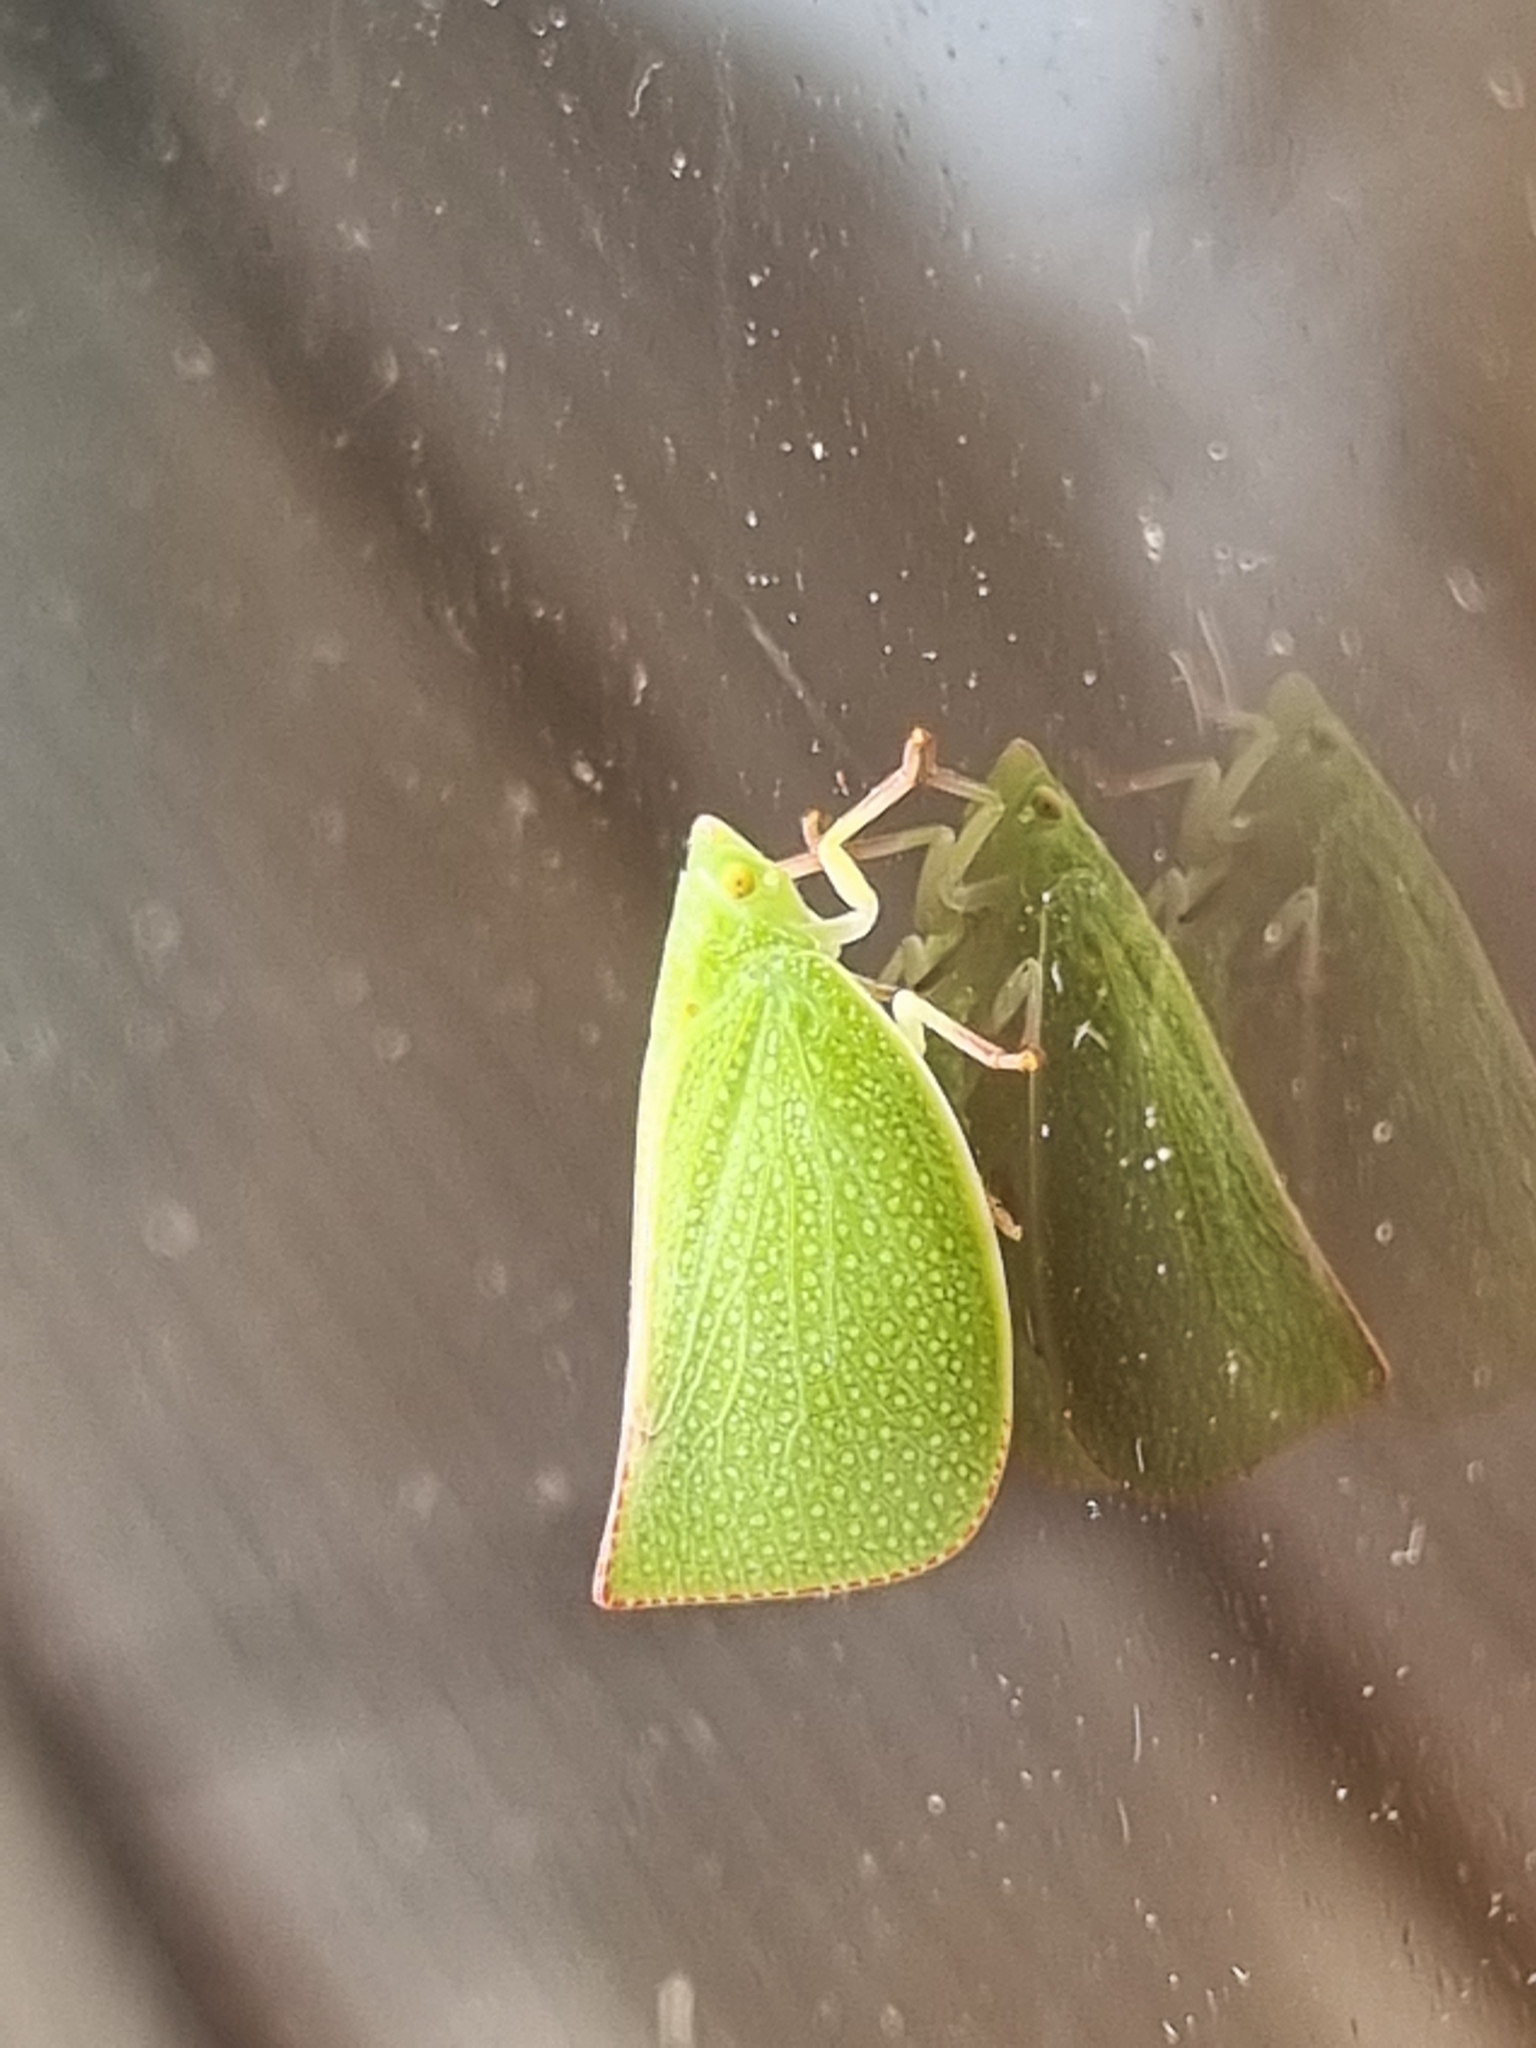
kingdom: Animalia
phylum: Arthropoda
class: Insecta
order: Hemiptera
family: Flatidae
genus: Siphanta
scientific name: Siphanta acuta
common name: Torpedo bug
